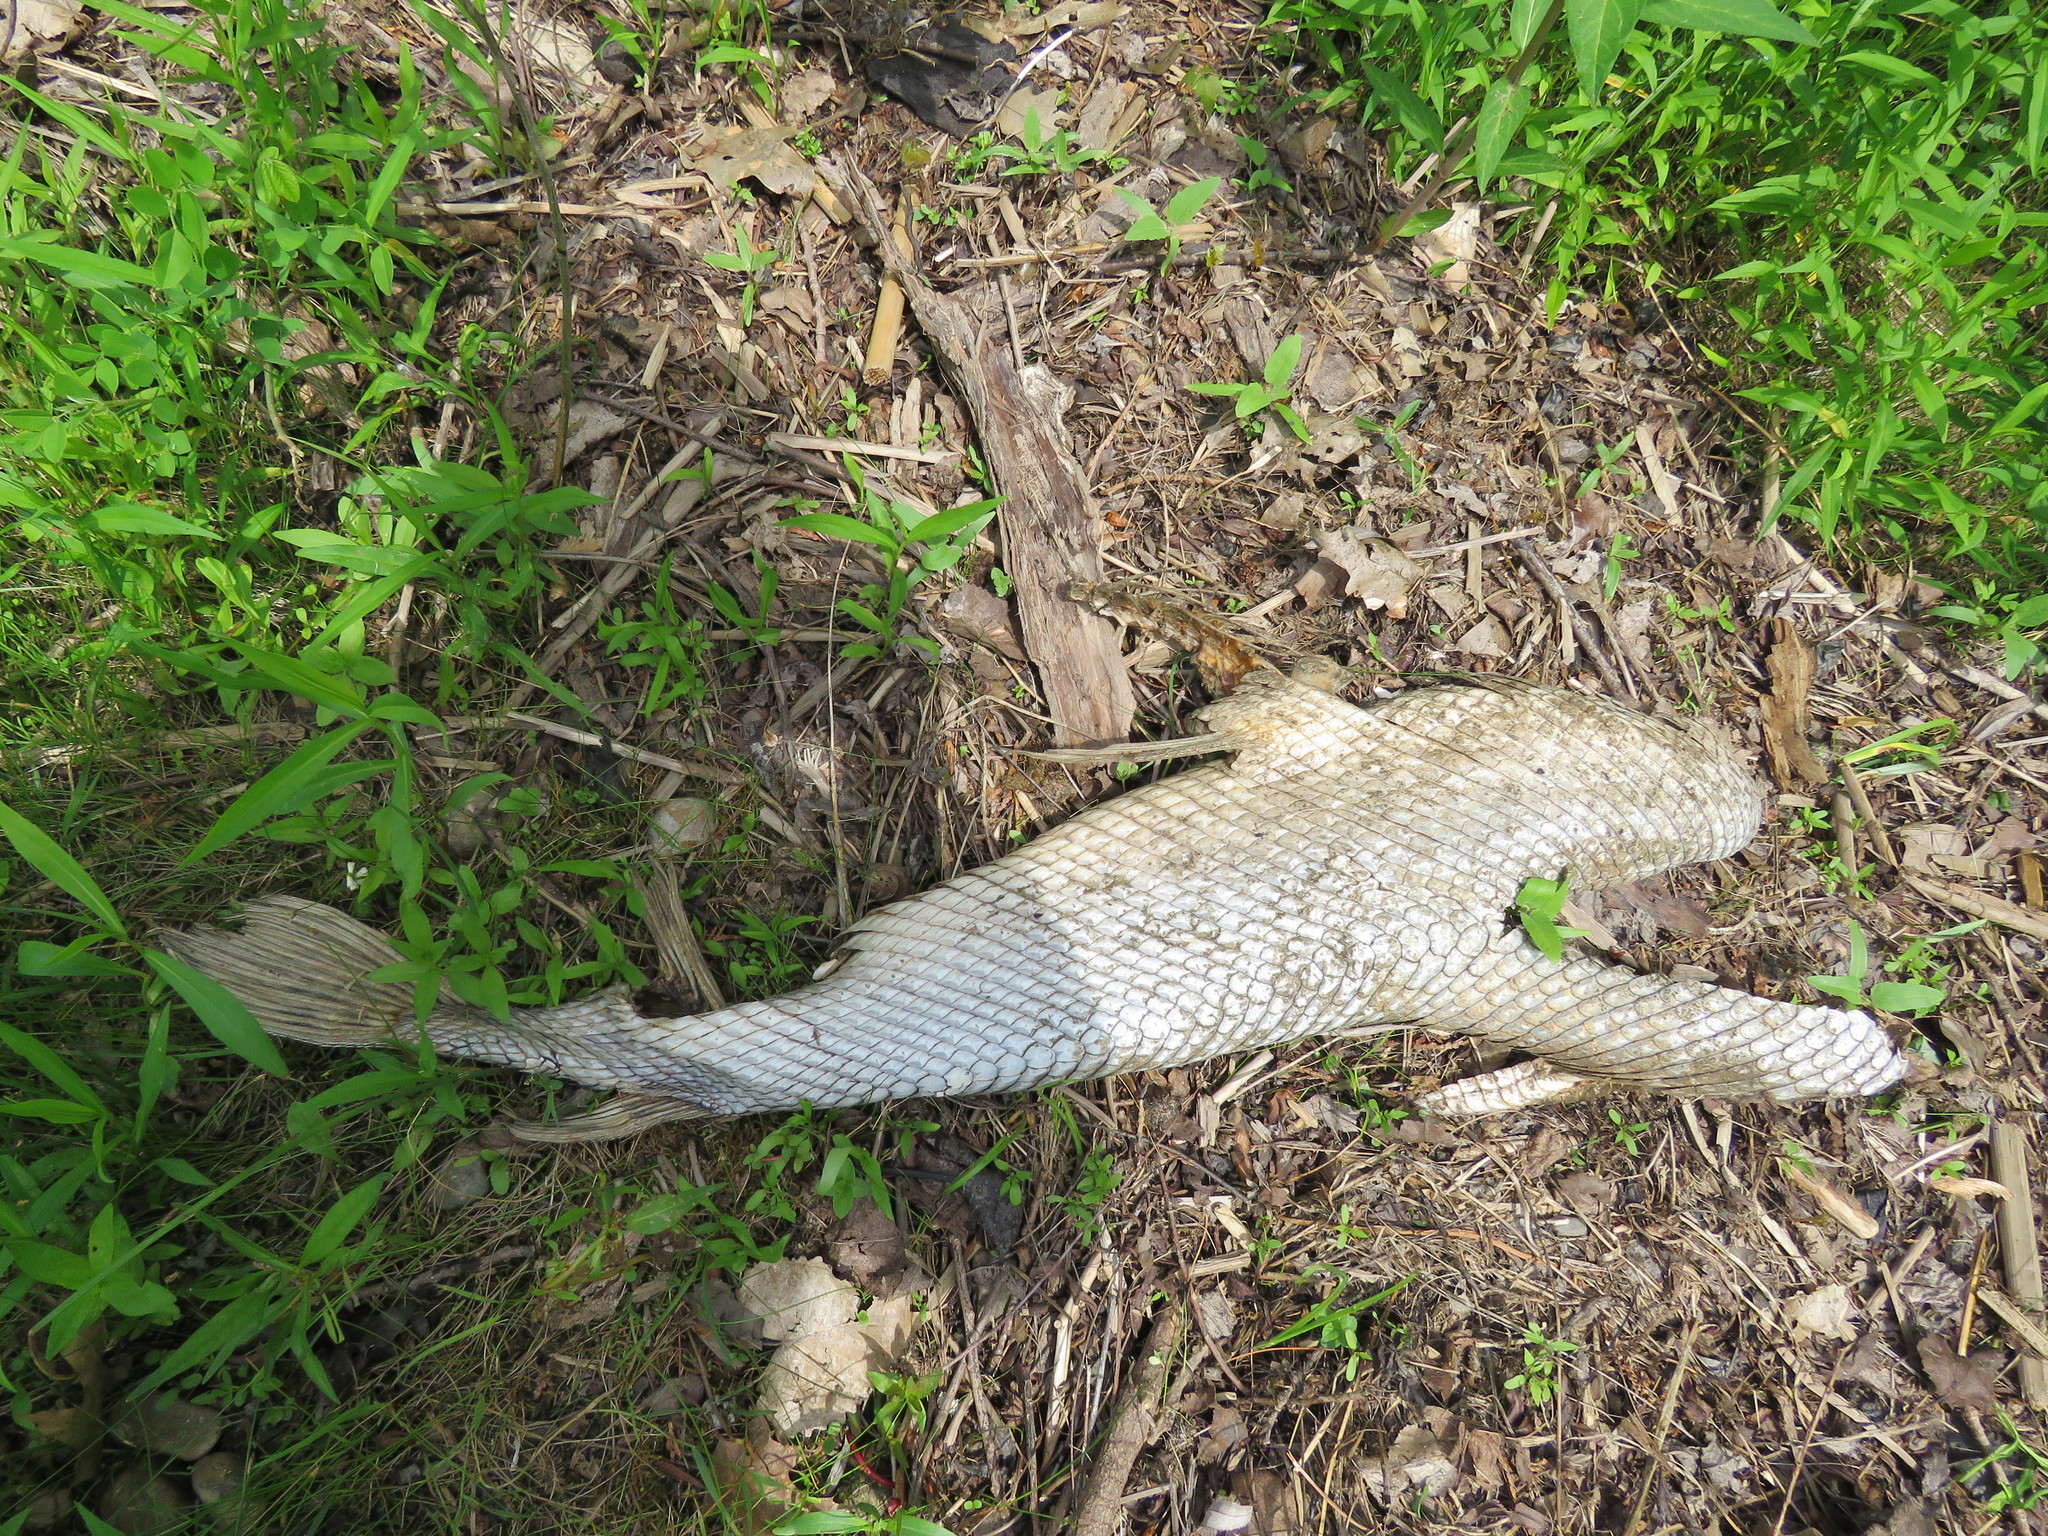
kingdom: Animalia
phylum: Chordata
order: Lepisosteiformes
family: Lepisosteidae
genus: Lepisosteus
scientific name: Lepisosteus osseus
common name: Longnose gar
